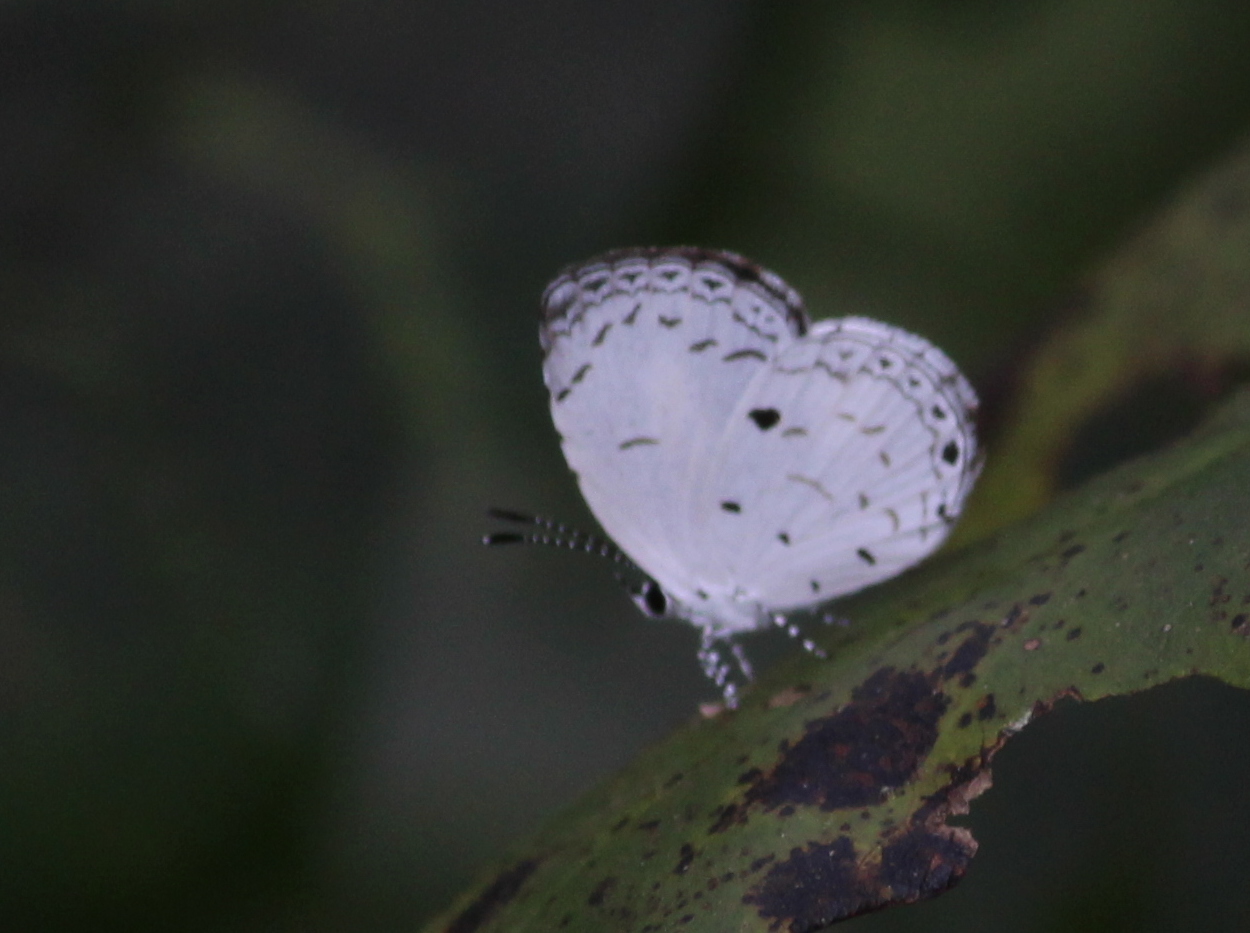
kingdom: Animalia
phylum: Arthropoda
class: Insecta
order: Lepidoptera
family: Lycaenidae
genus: Neopithecops
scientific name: Neopithecops zalmora
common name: Quaker
